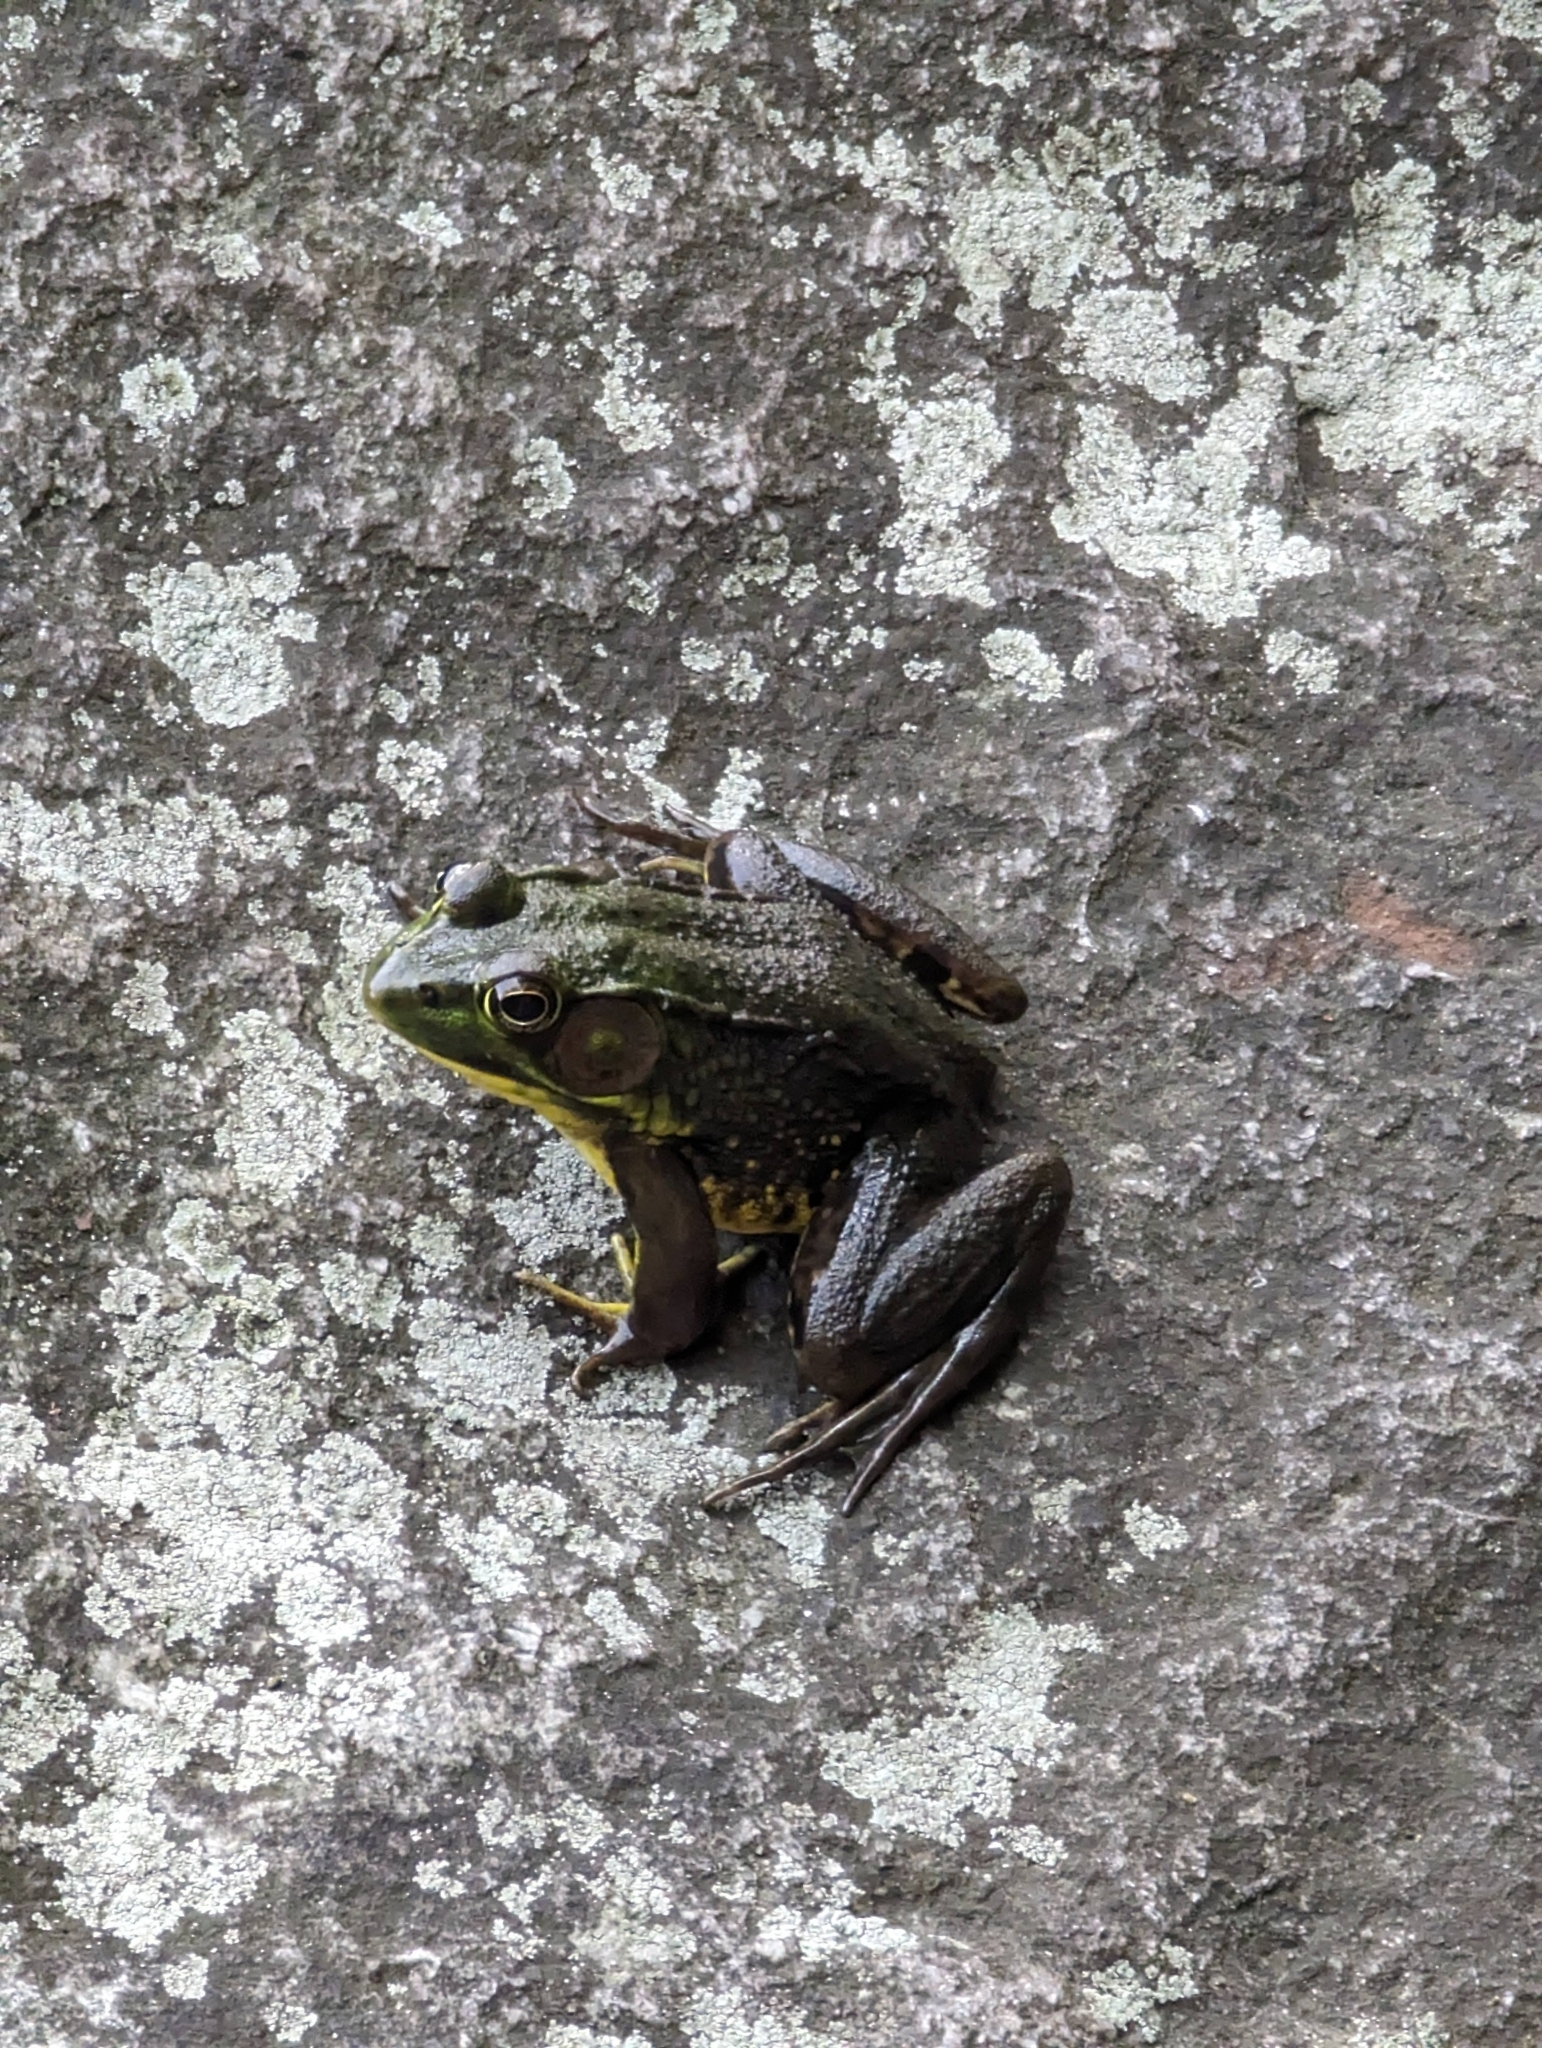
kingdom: Animalia
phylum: Chordata
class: Amphibia
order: Anura
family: Ranidae
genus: Lithobates
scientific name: Lithobates clamitans
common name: Green frog
